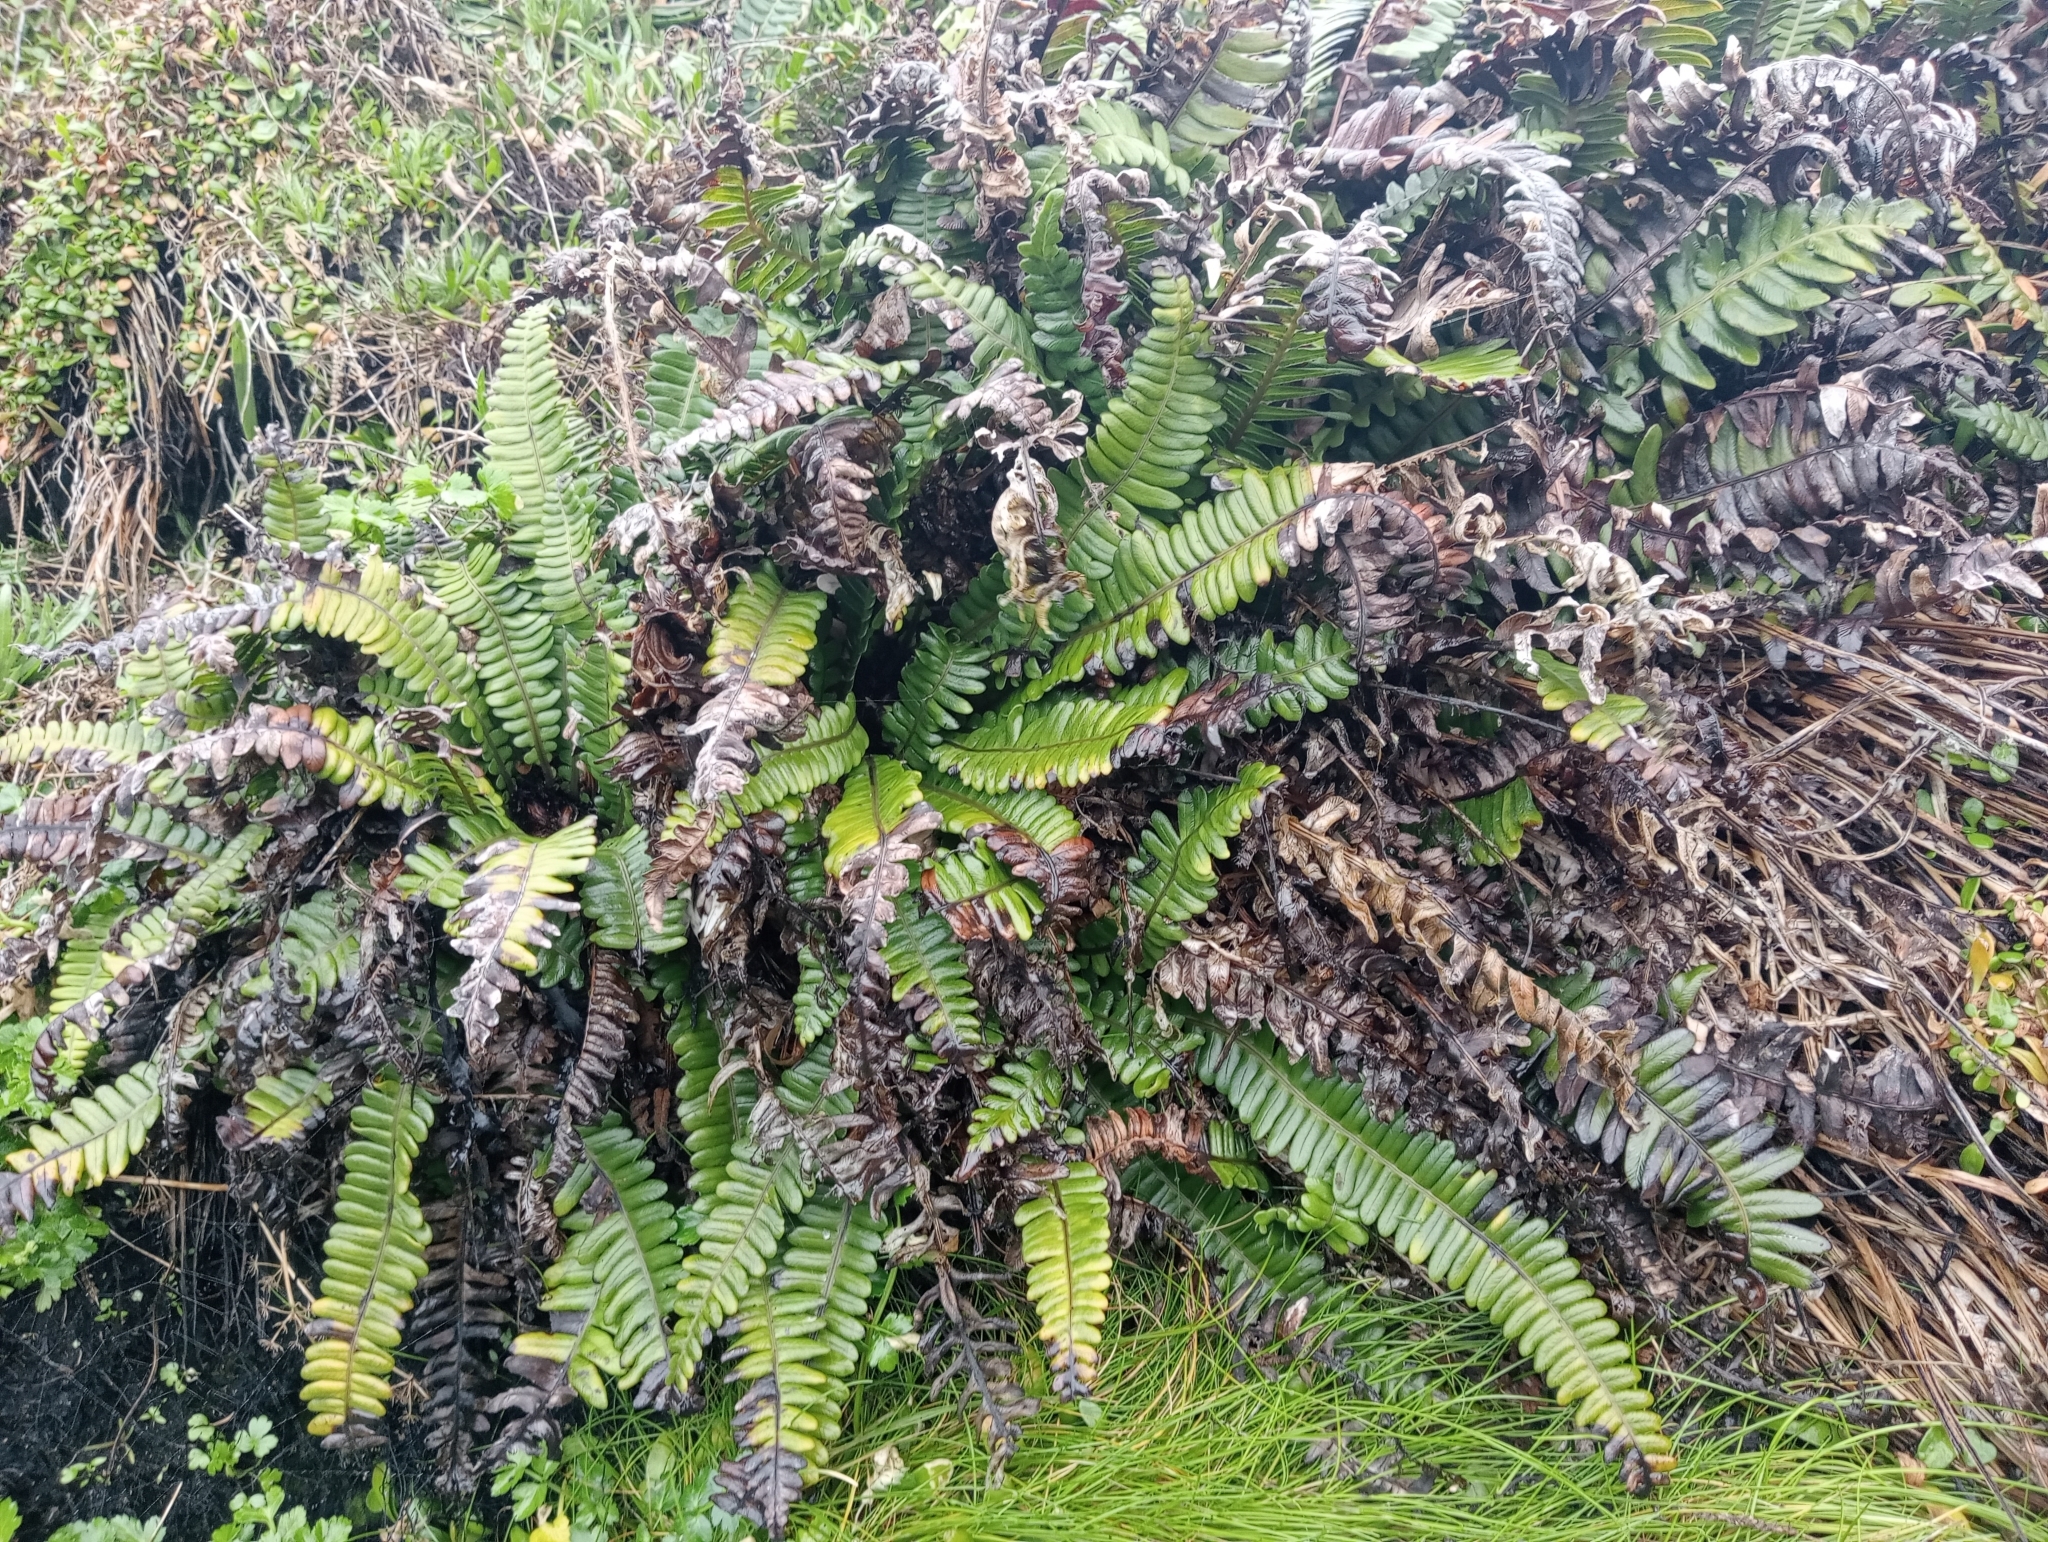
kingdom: Plantae
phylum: Tracheophyta
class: Polypodiopsida
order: Polypodiales
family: Blechnaceae
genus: Austroblechnum
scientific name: Austroblechnum durum
